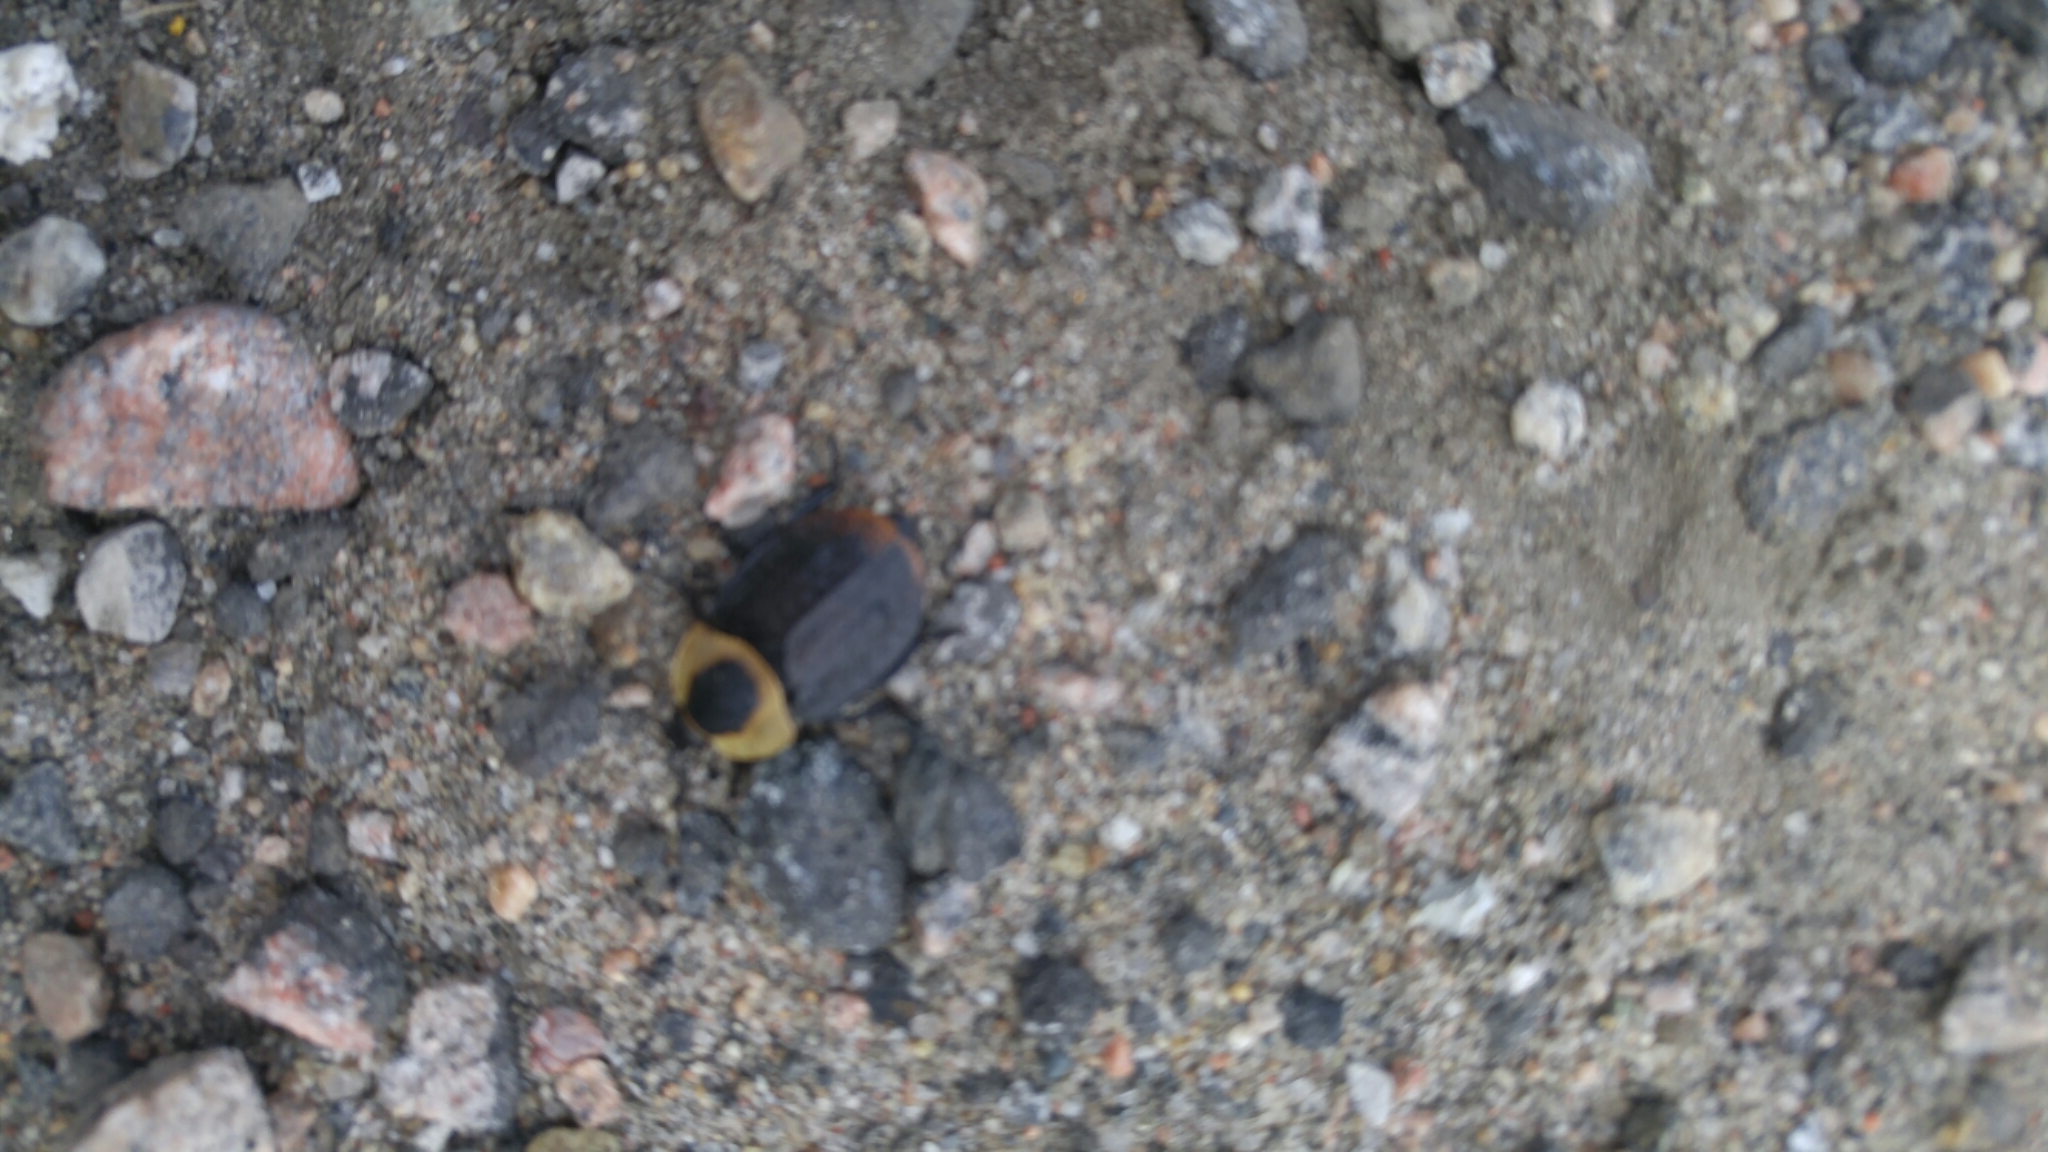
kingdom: Animalia
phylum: Arthropoda
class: Insecta
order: Coleoptera
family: Staphylinidae
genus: Necrophila
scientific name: Necrophila americana
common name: American carrion beetle
